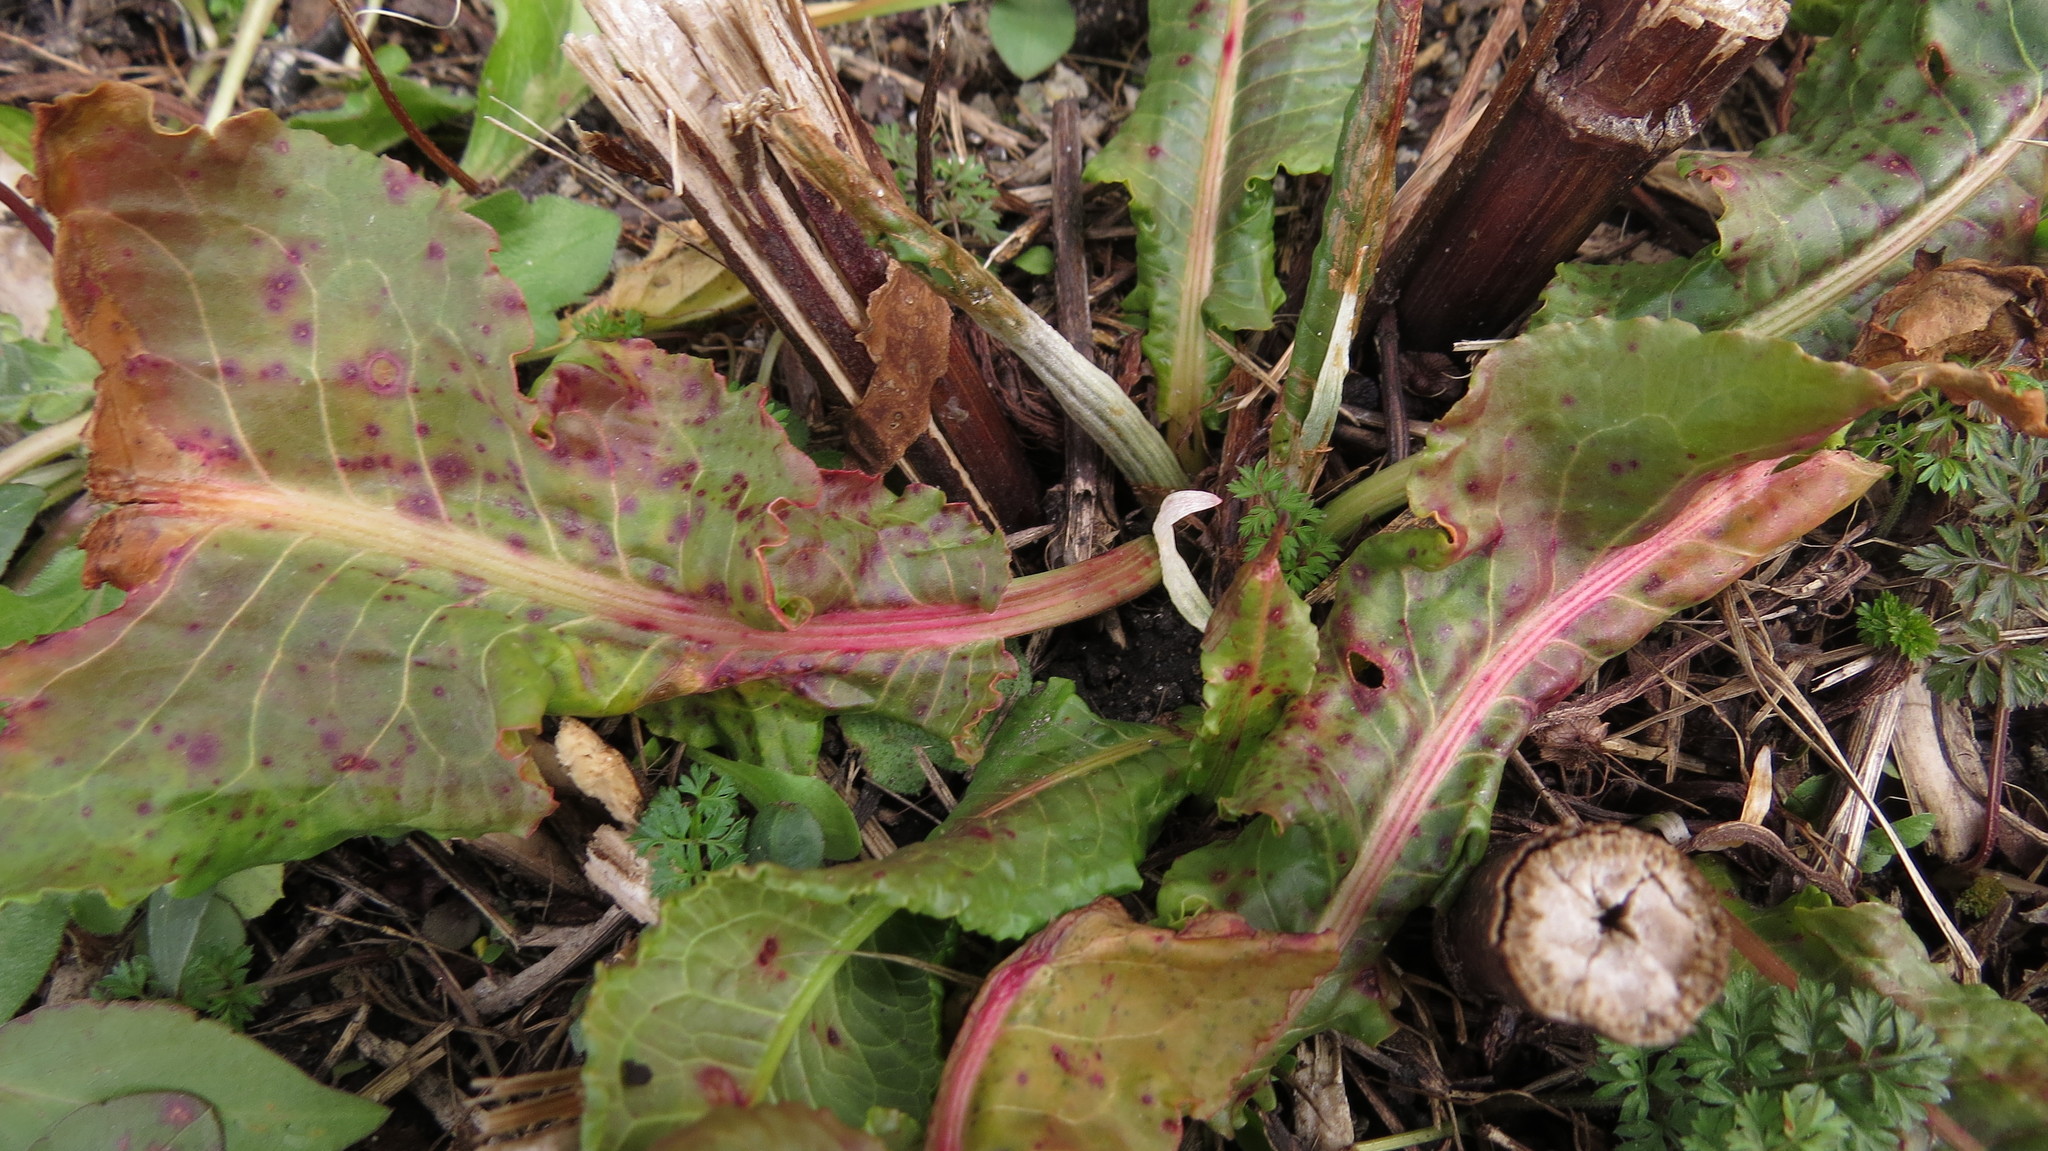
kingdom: Fungi
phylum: Ascomycota
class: Dothideomycetes
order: Mycosphaerellales
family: Mycosphaerellaceae
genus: Ramularia
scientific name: Ramularia rubella
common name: Red dock spot
